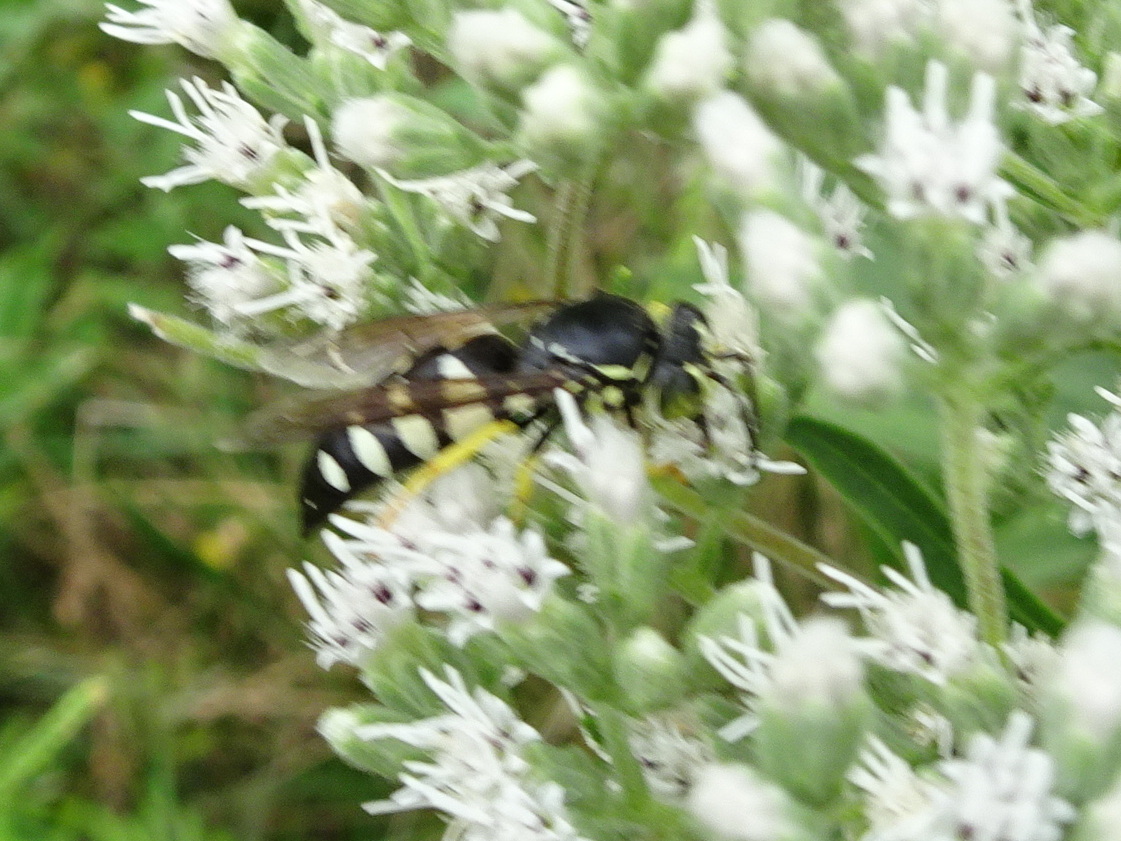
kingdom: Animalia
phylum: Arthropoda
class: Insecta
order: Hymenoptera
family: Crabronidae
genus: Bicyrtes
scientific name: Bicyrtes quadrifasciatus
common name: Four-banded stink bug hunter wasp
